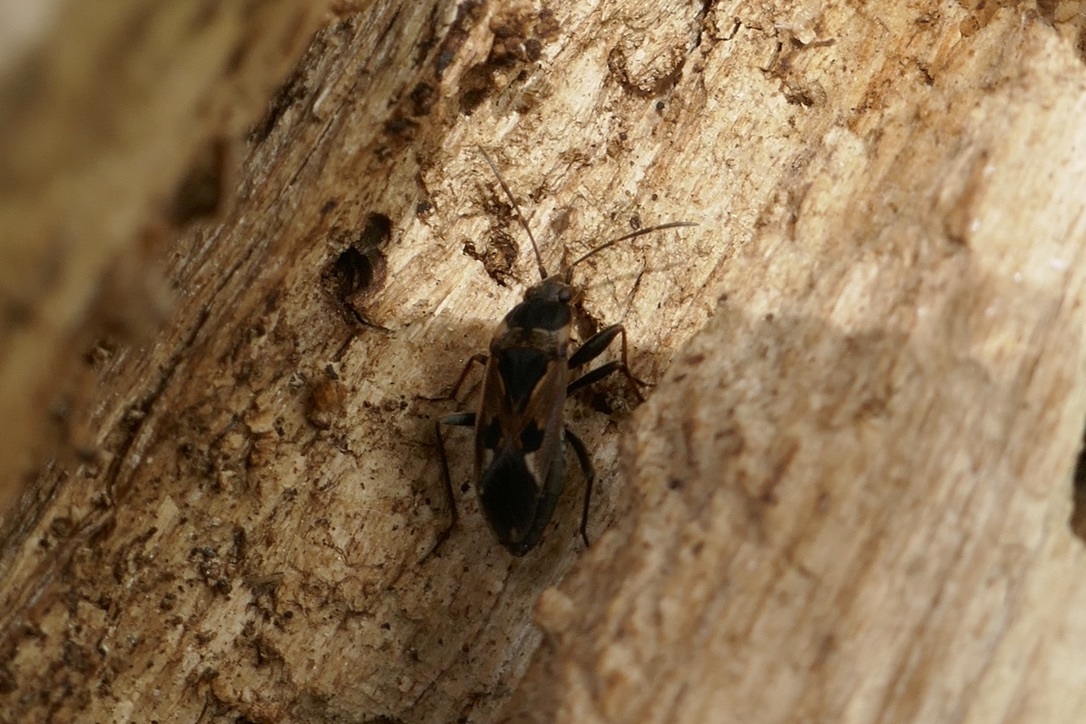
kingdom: Animalia
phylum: Arthropoda
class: Insecta
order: Hemiptera
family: Rhyparochromidae
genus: Rhyparochromus
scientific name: Rhyparochromus vulgaris
